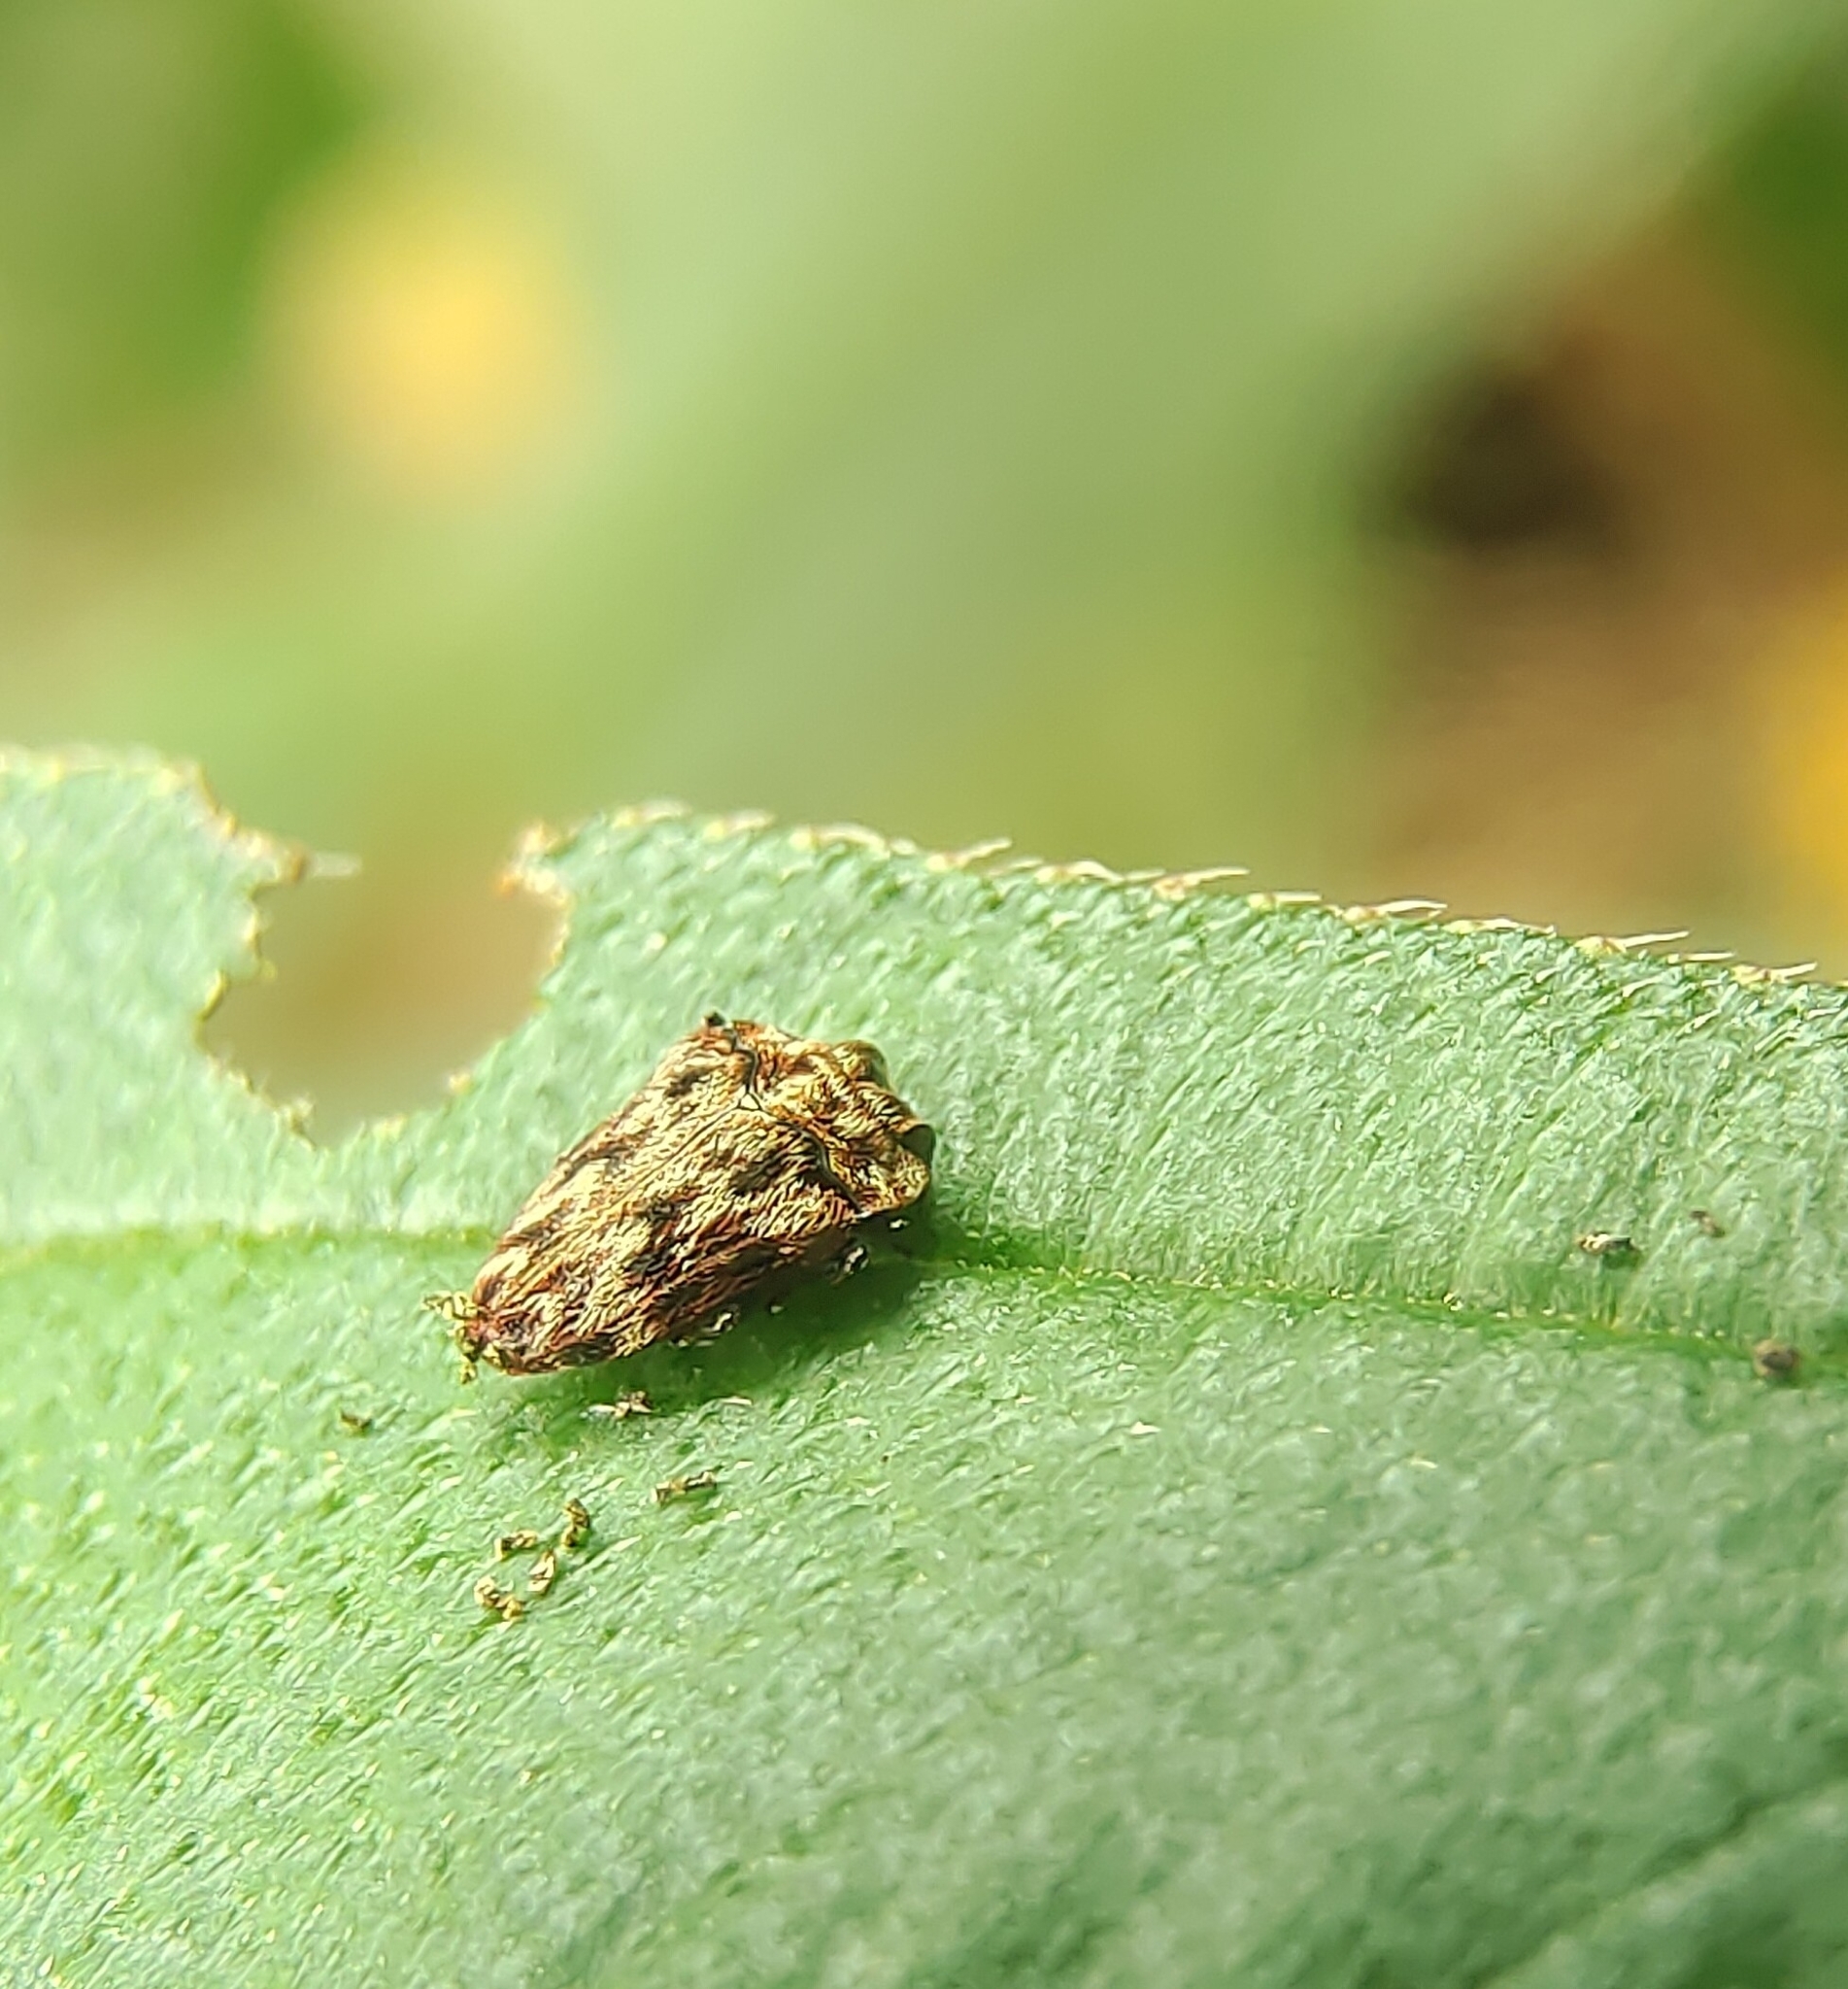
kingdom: Animalia
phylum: Arthropoda
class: Insecta
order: Coleoptera
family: Buprestidae
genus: Habroloma
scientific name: Habroloma lepidopterum
